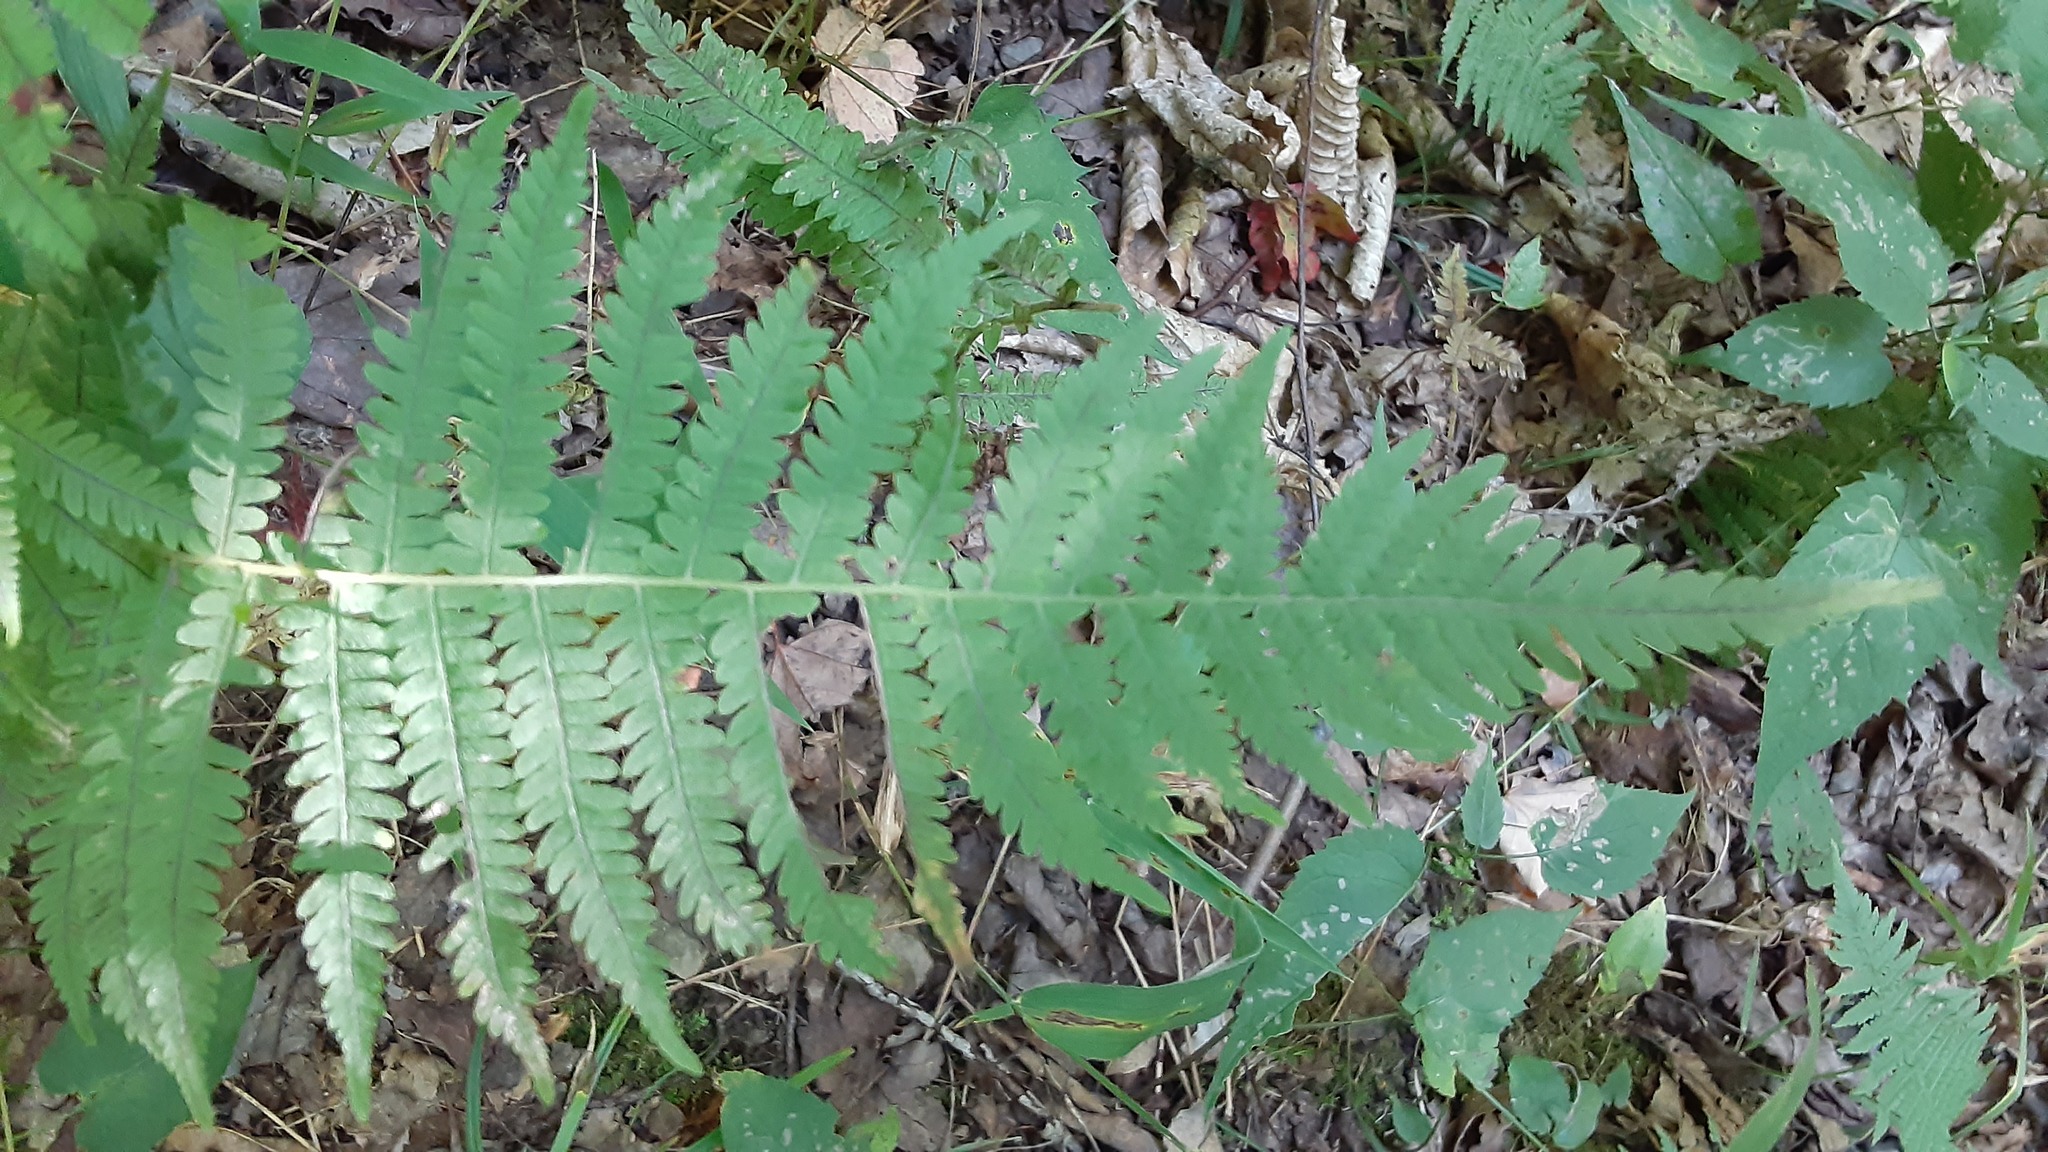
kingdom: Plantae
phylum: Tracheophyta
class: Polypodiopsida
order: Polypodiales
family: Thelypteridaceae
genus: Amauropelta
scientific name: Amauropelta noveboracensis
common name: New york fern
